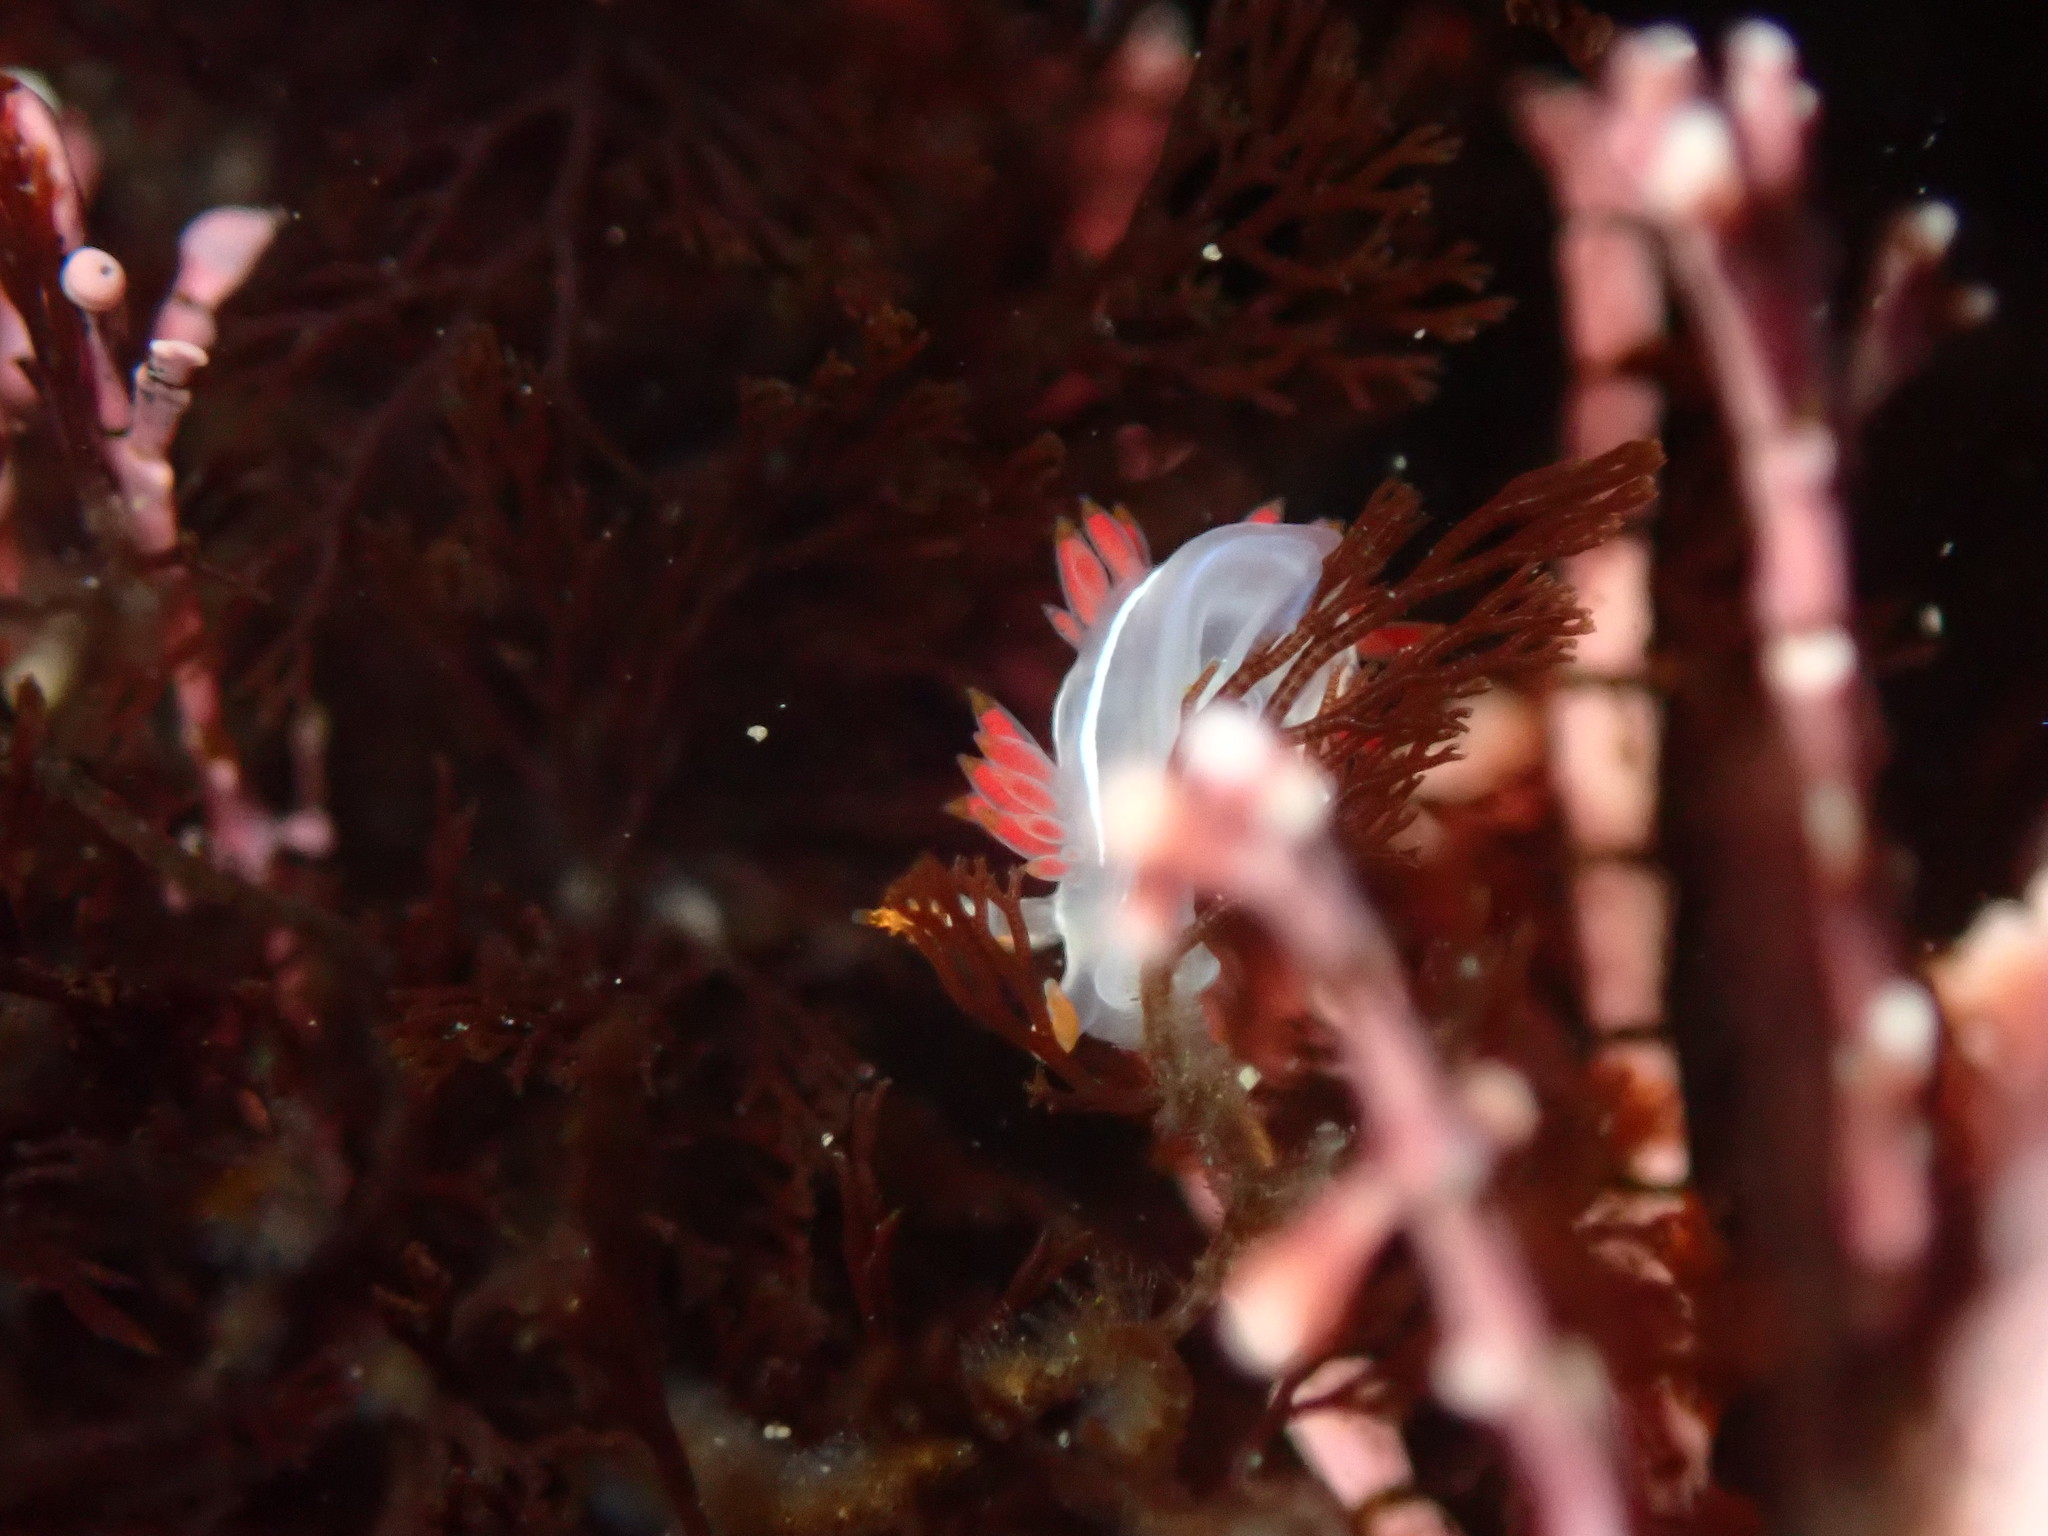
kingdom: Animalia
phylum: Mollusca
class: Gastropoda
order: Nudibranchia
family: Coryphellidae
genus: Coryphella
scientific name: Coryphella trilineata
